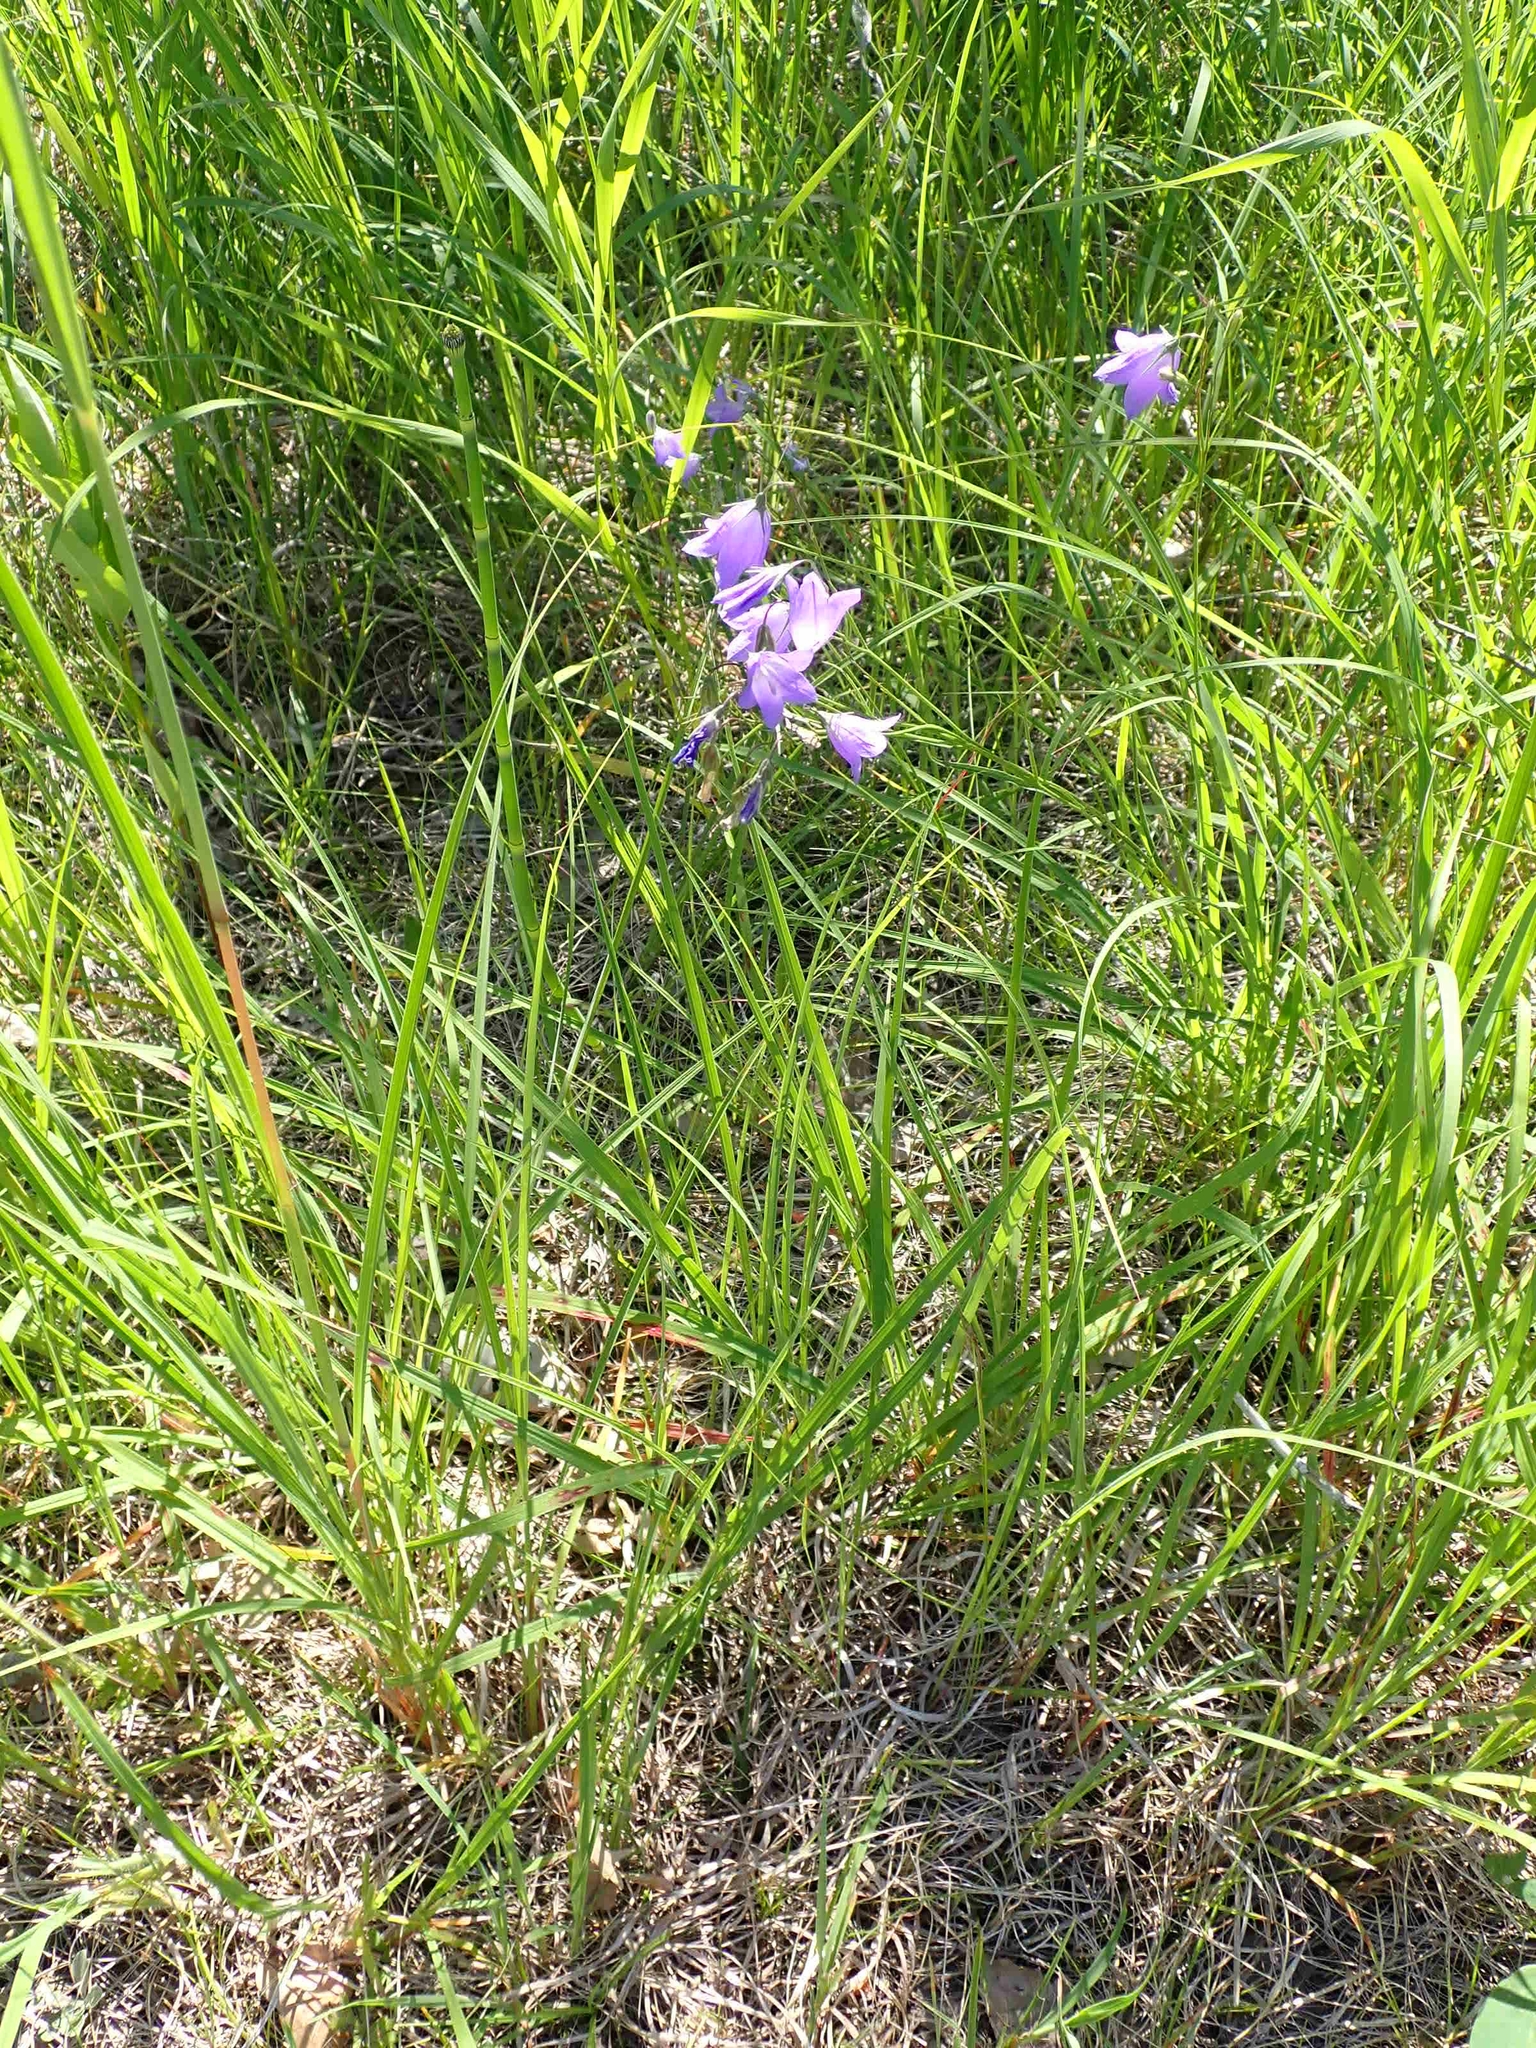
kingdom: Plantae
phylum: Tracheophyta
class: Magnoliopsida
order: Asterales
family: Campanulaceae
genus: Campanula
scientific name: Campanula petiolata
